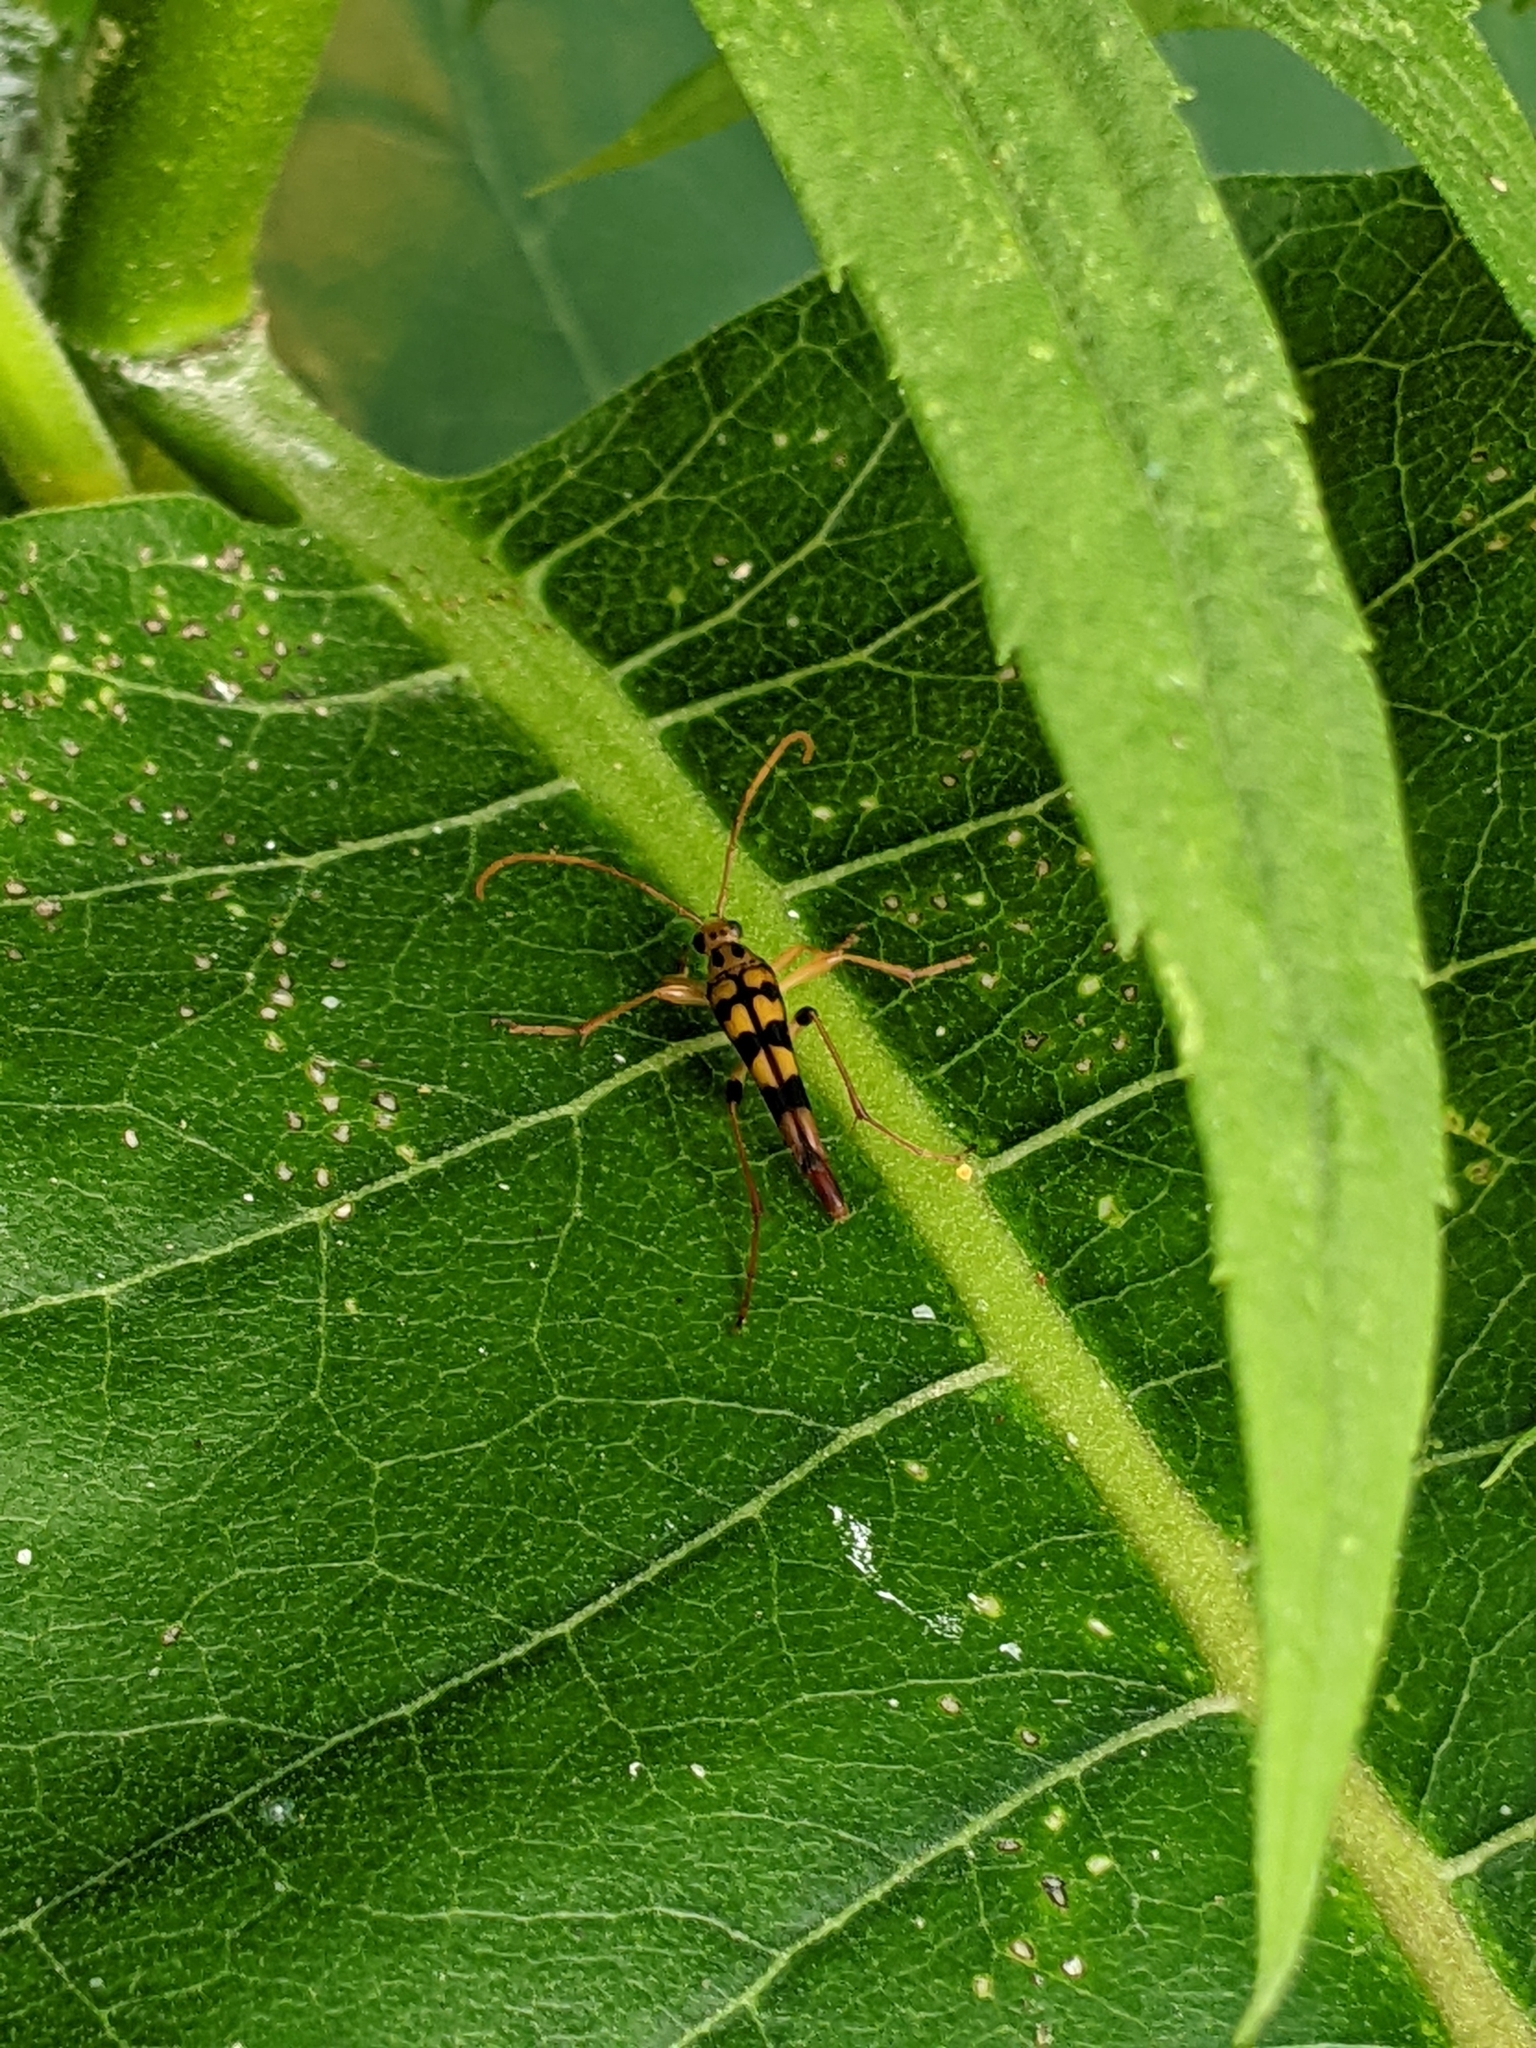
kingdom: Animalia
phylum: Arthropoda
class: Insecta
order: Coleoptera
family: Cerambycidae
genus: Strangalia
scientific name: Strangalia luteicornis
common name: Yellow-horned flower longhorn beetle
